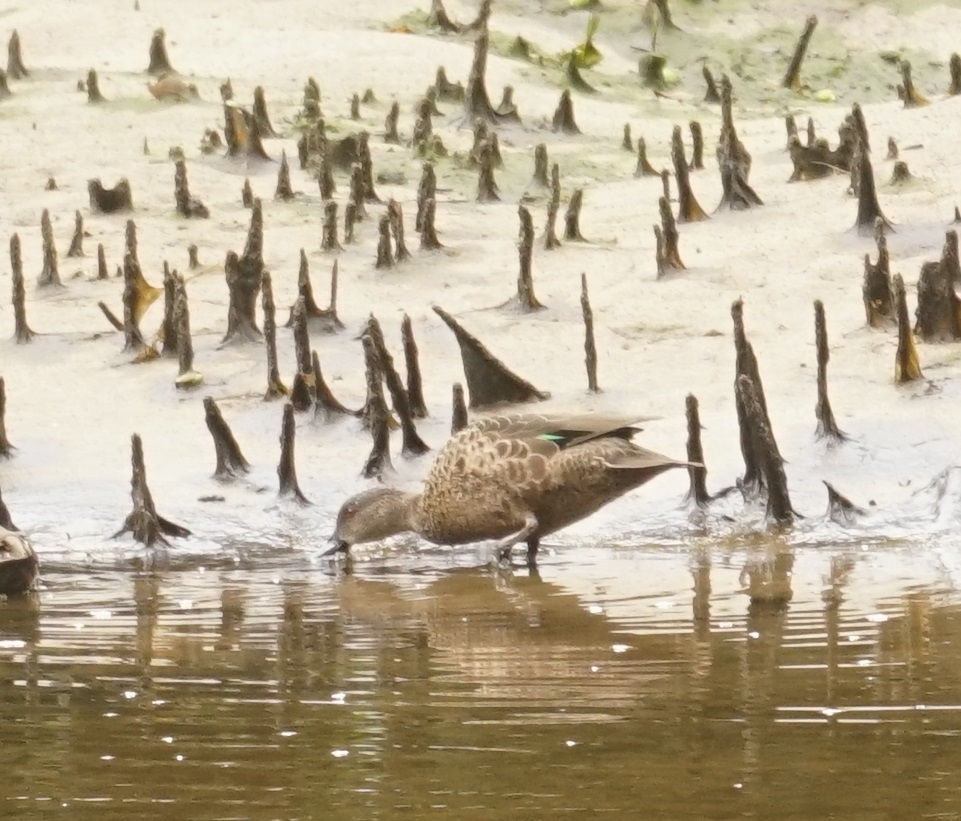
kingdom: Animalia
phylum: Chordata
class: Aves
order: Anseriformes
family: Anatidae
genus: Anas
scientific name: Anas gracilis
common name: Grey teal
